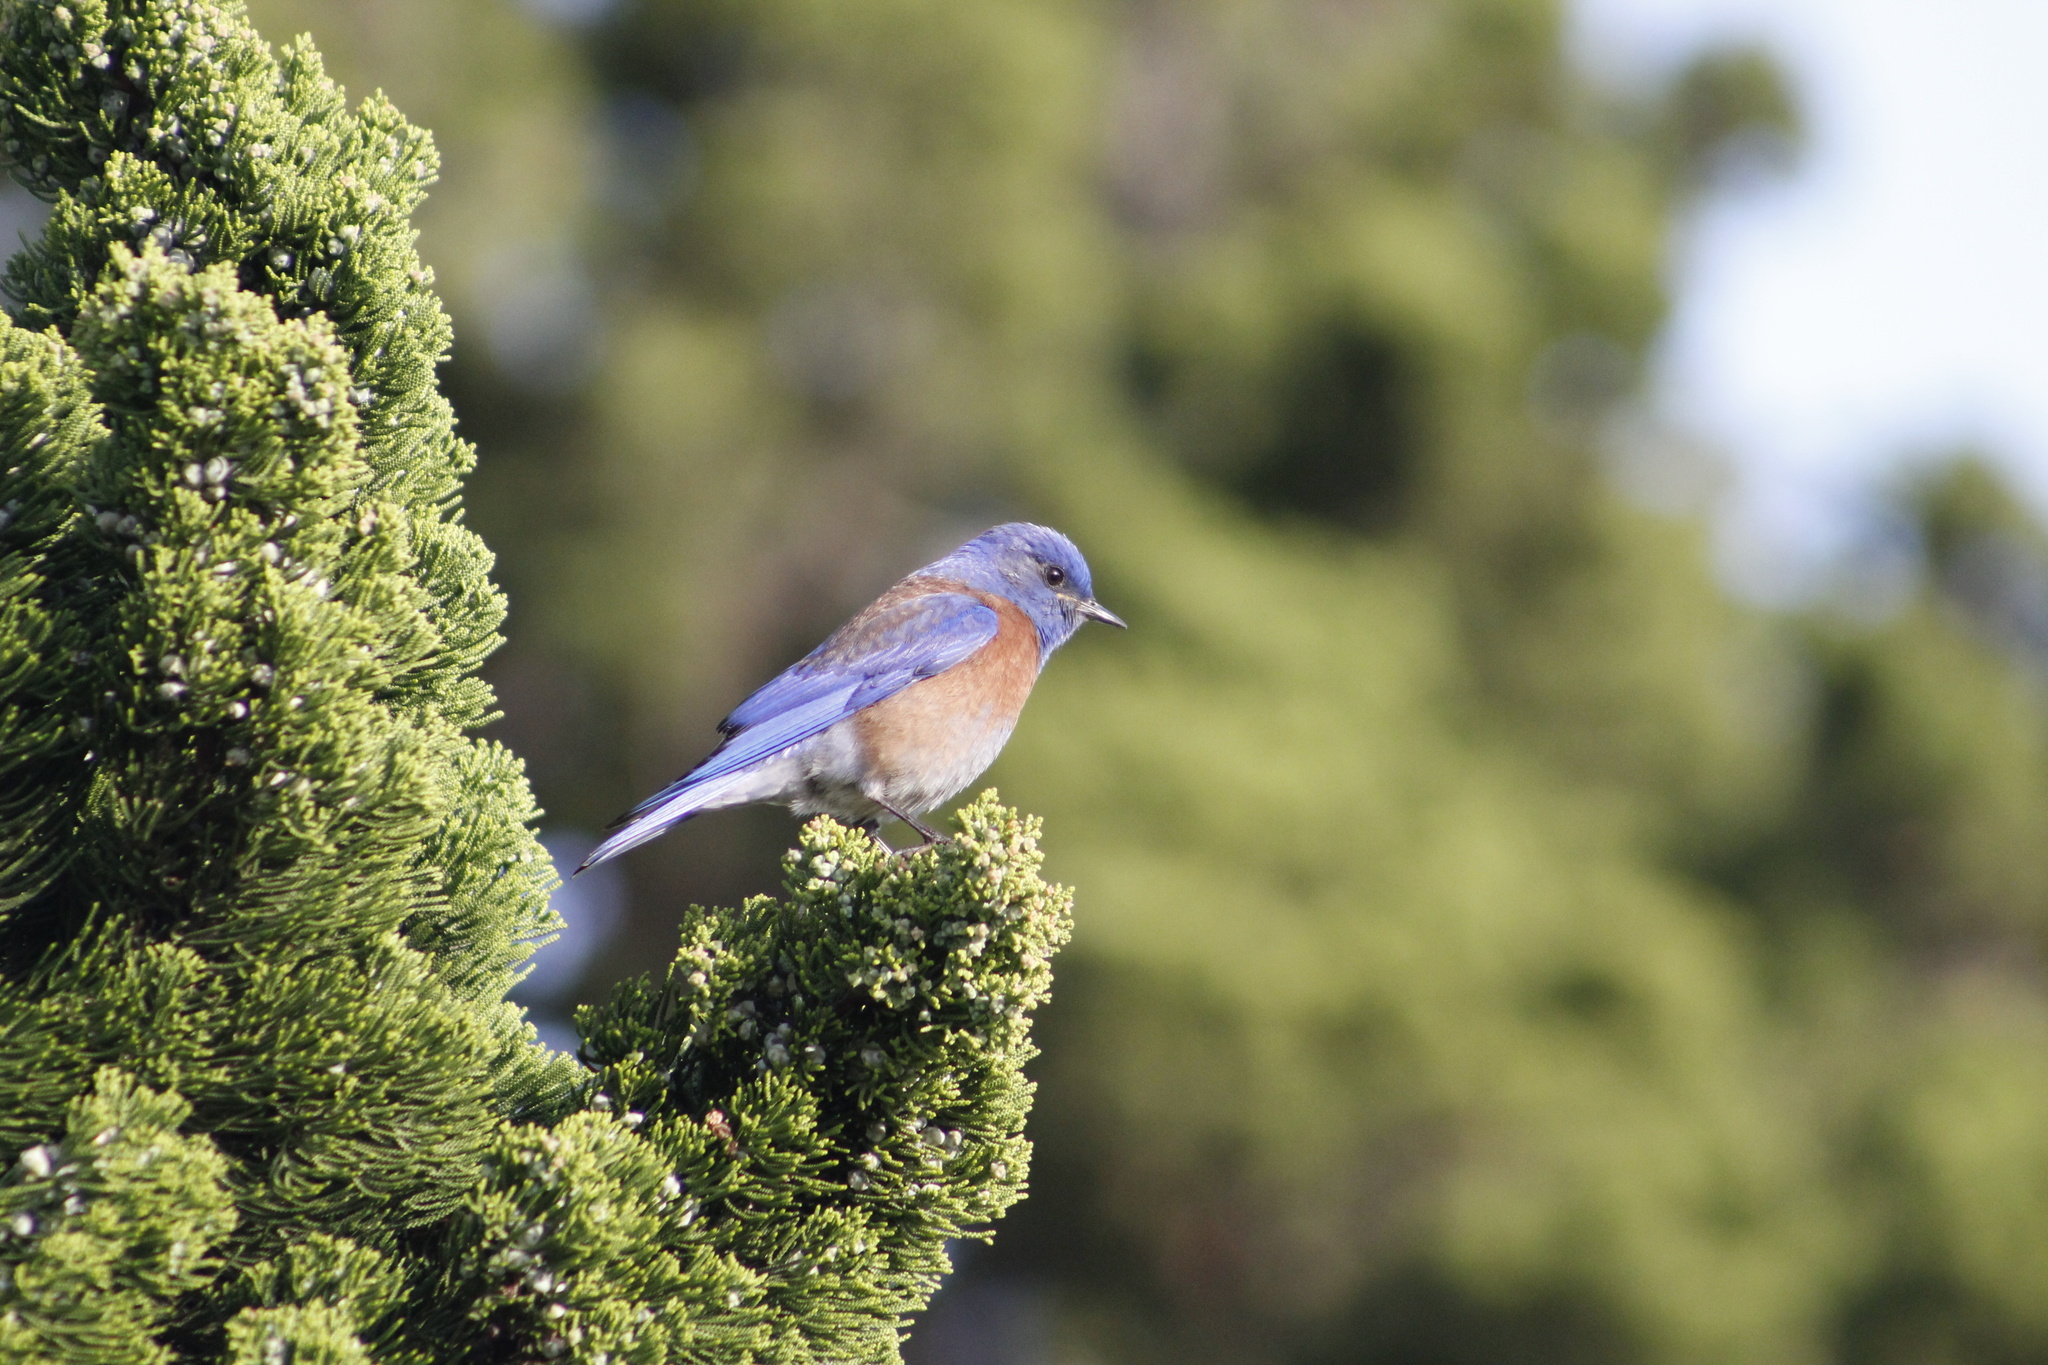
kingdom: Animalia
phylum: Chordata
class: Aves
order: Passeriformes
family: Turdidae
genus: Sialia
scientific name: Sialia mexicana
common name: Western bluebird
